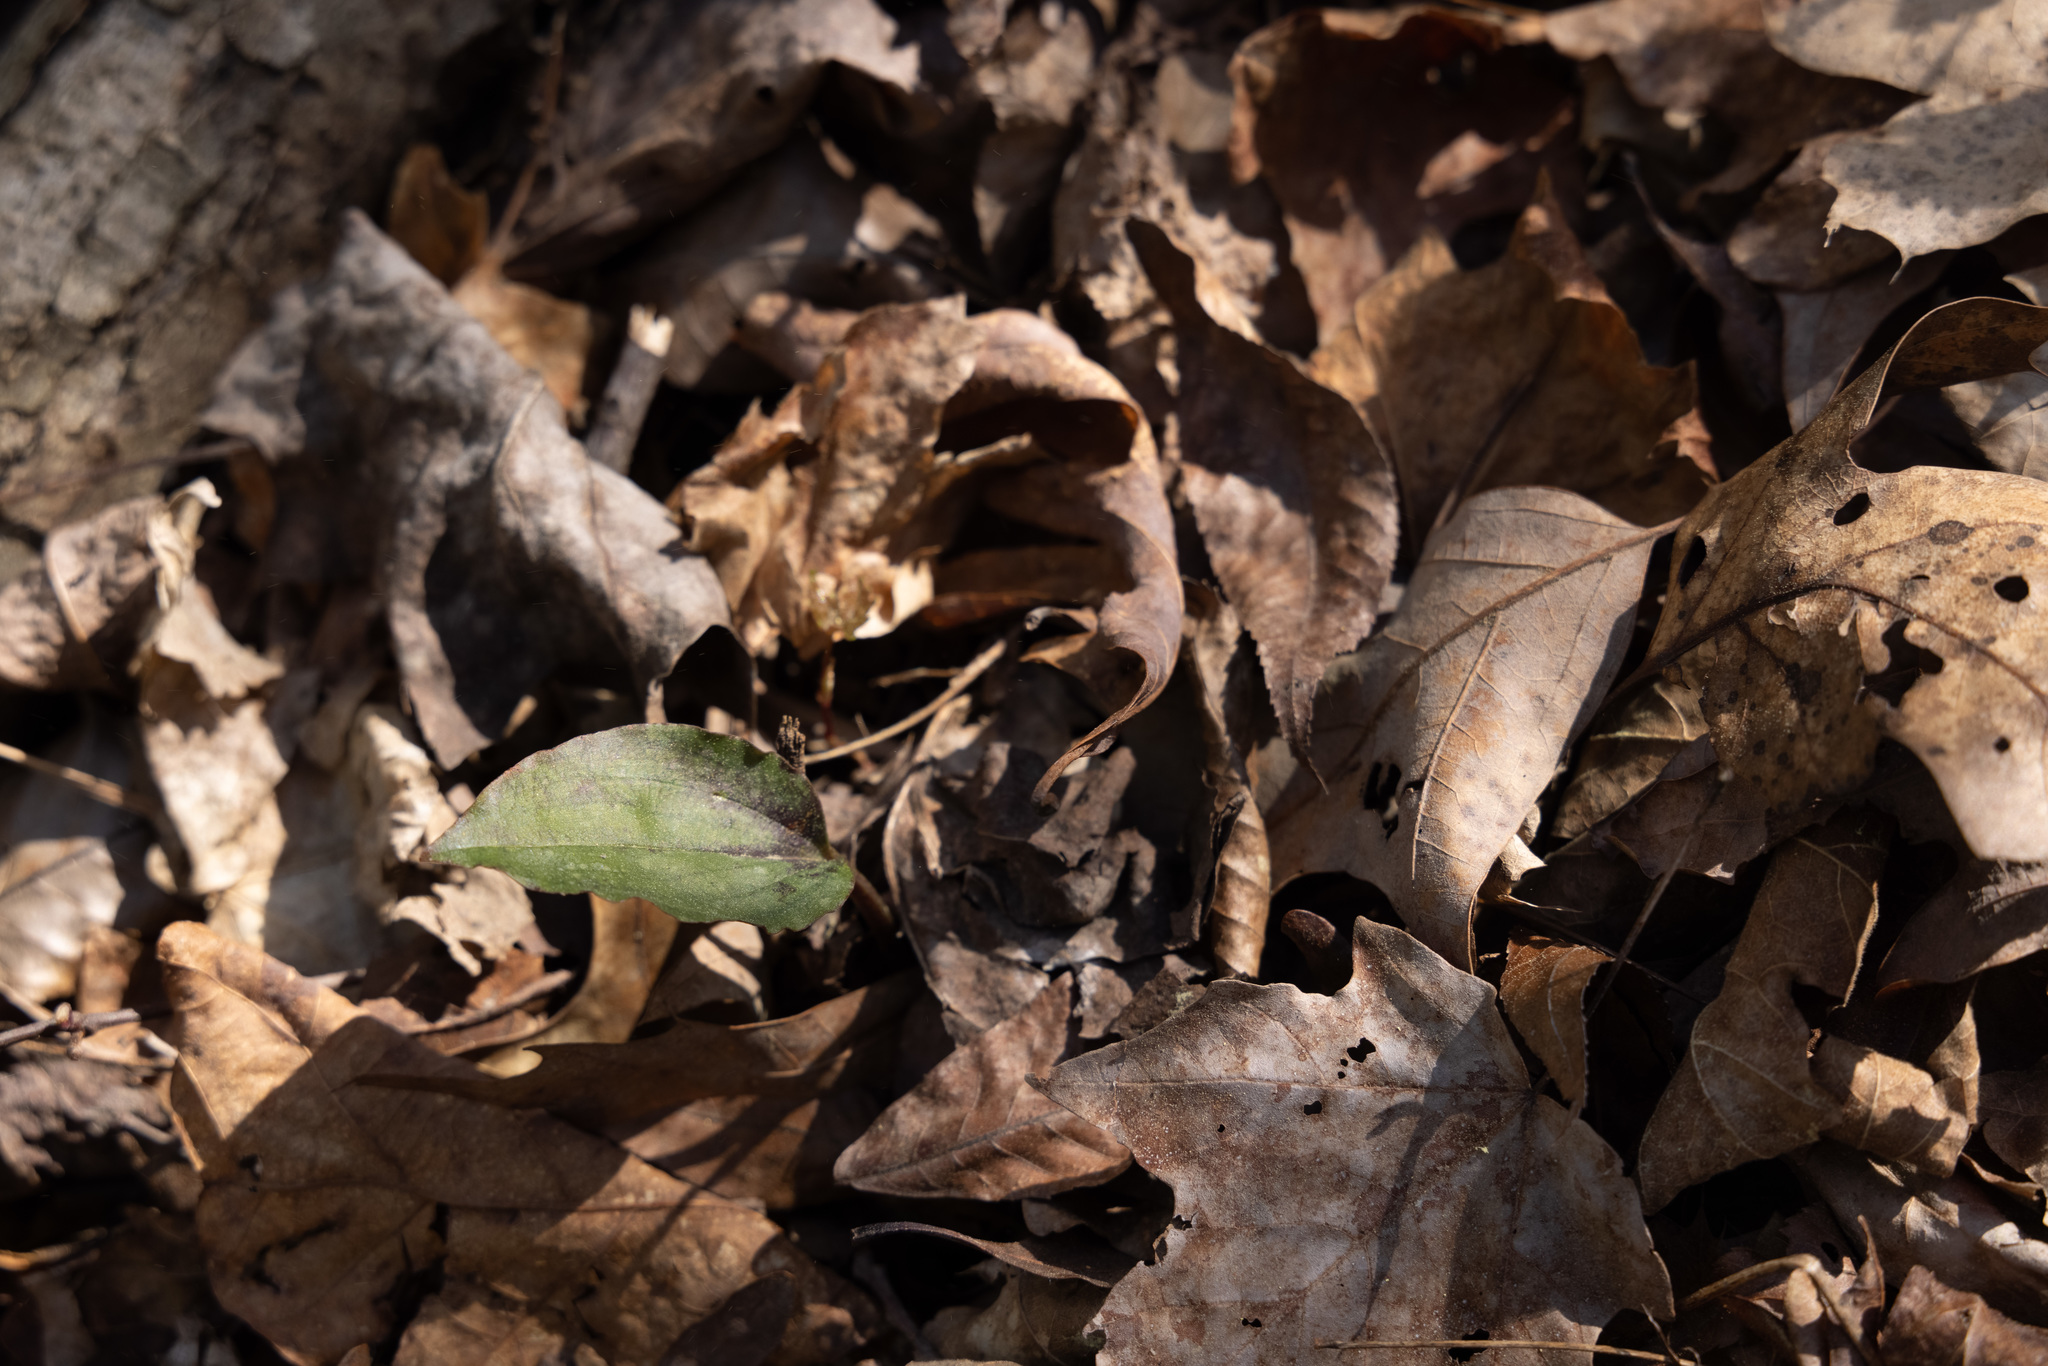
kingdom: Plantae
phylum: Tracheophyta
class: Liliopsida
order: Asparagales
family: Orchidaceae
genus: Tipularia
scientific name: Tipularia discolor
